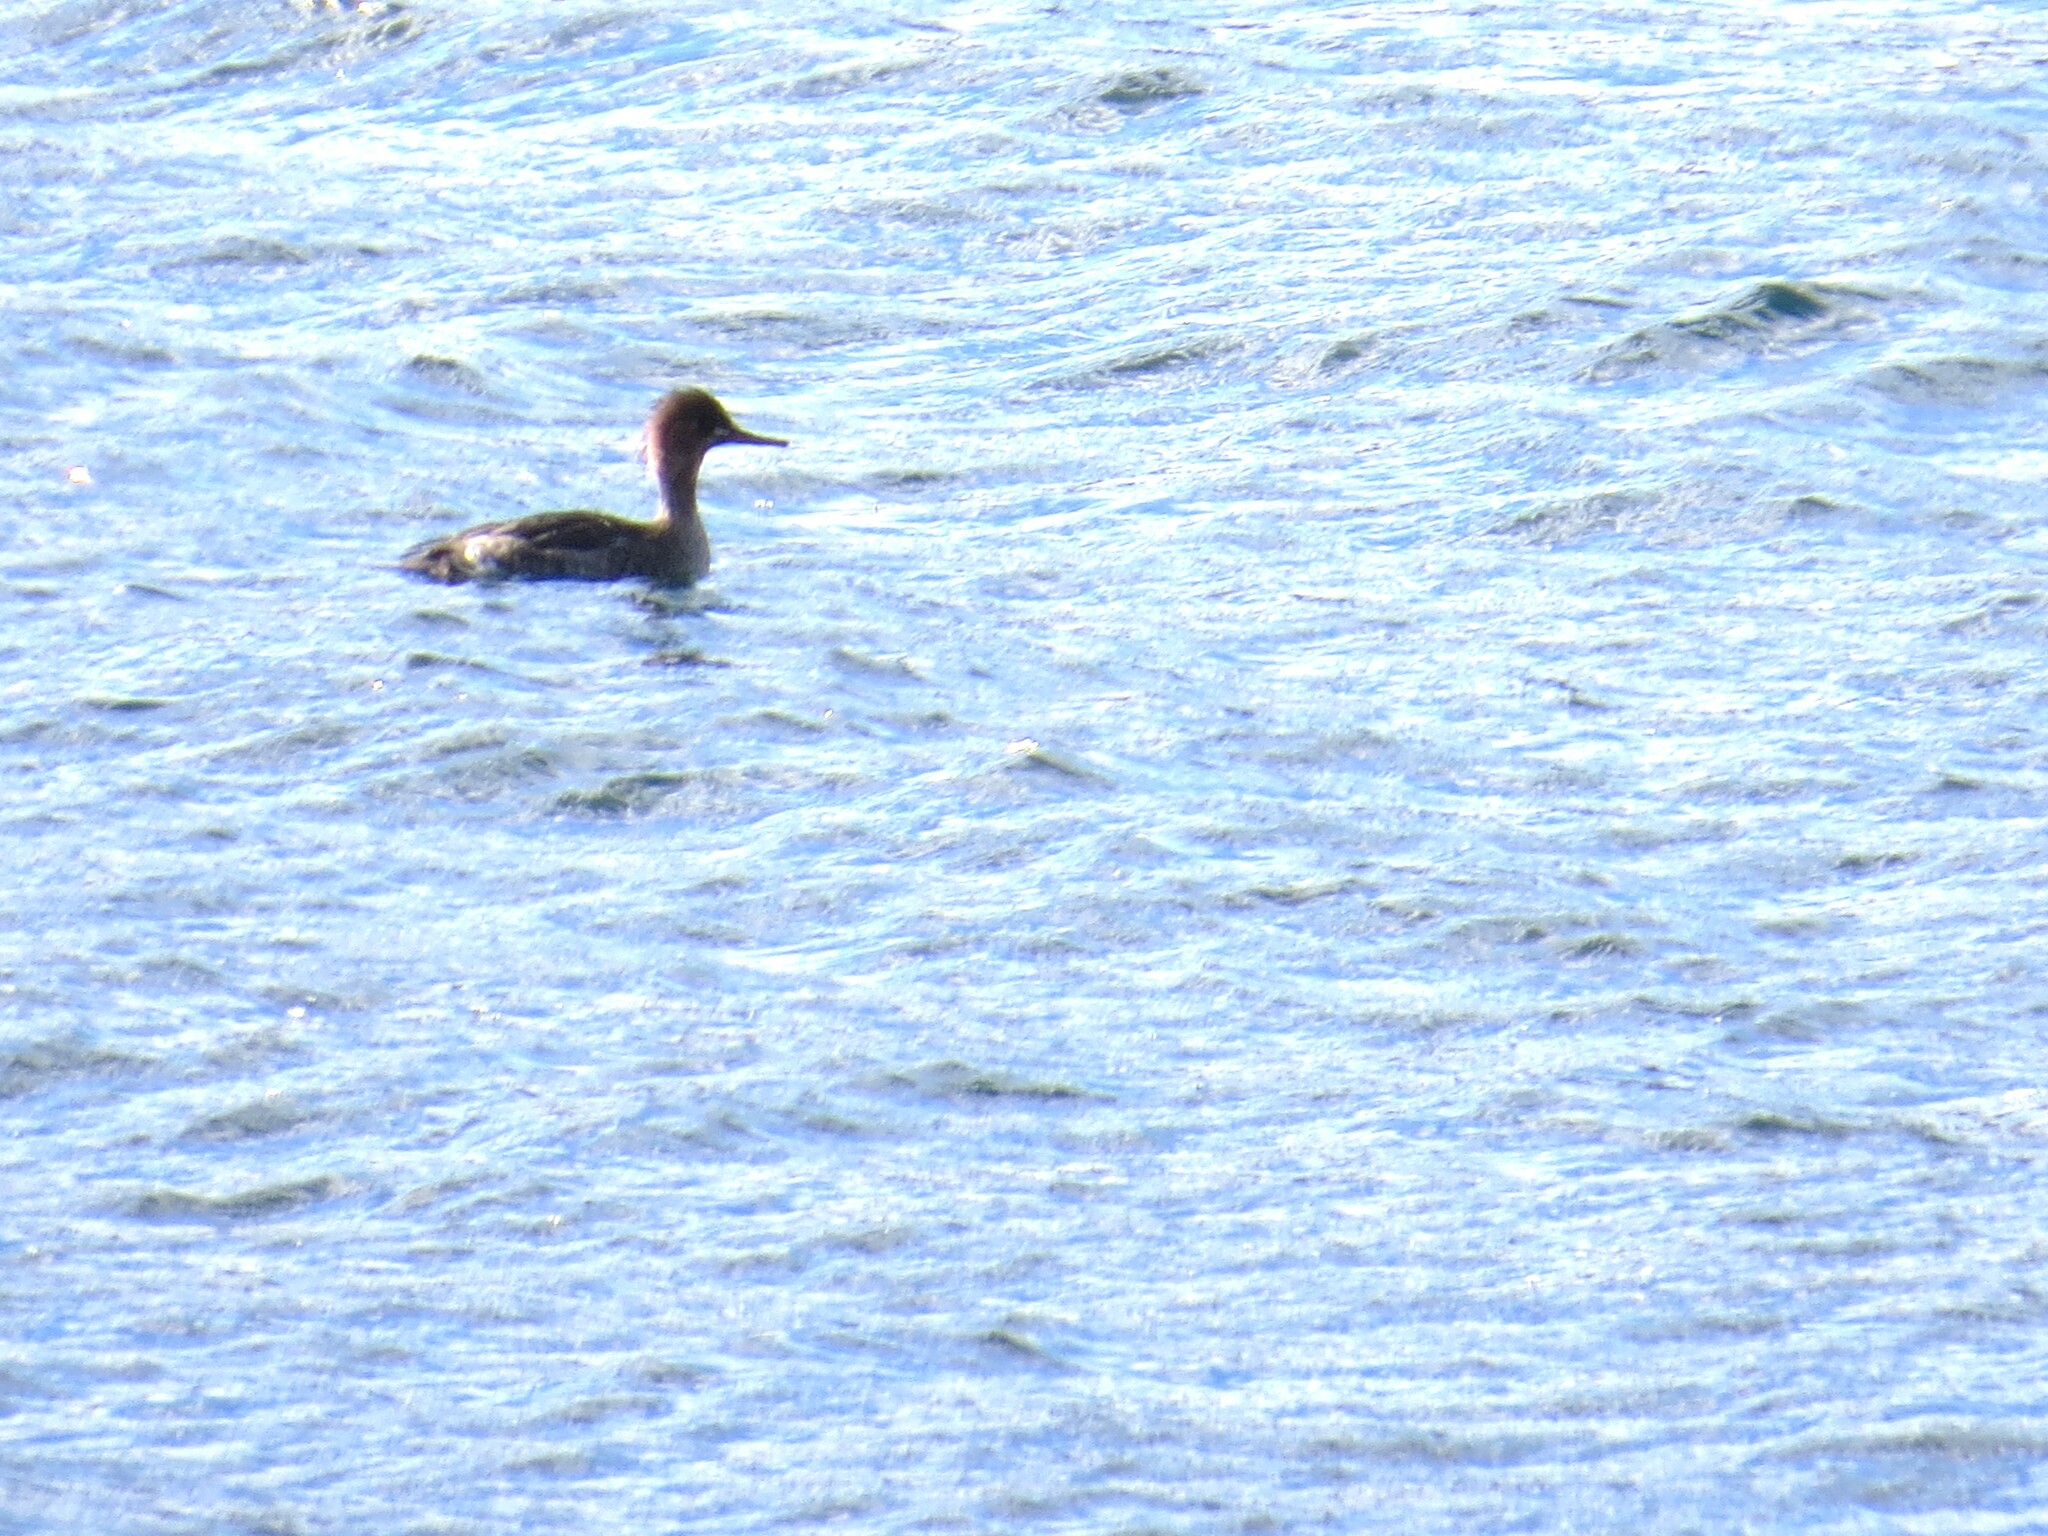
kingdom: Animalia
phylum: Chordata
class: Aves
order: Anseriformes
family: Anatidae
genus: Mergus
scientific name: Mergus serrator
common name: Red-breasted merganser
